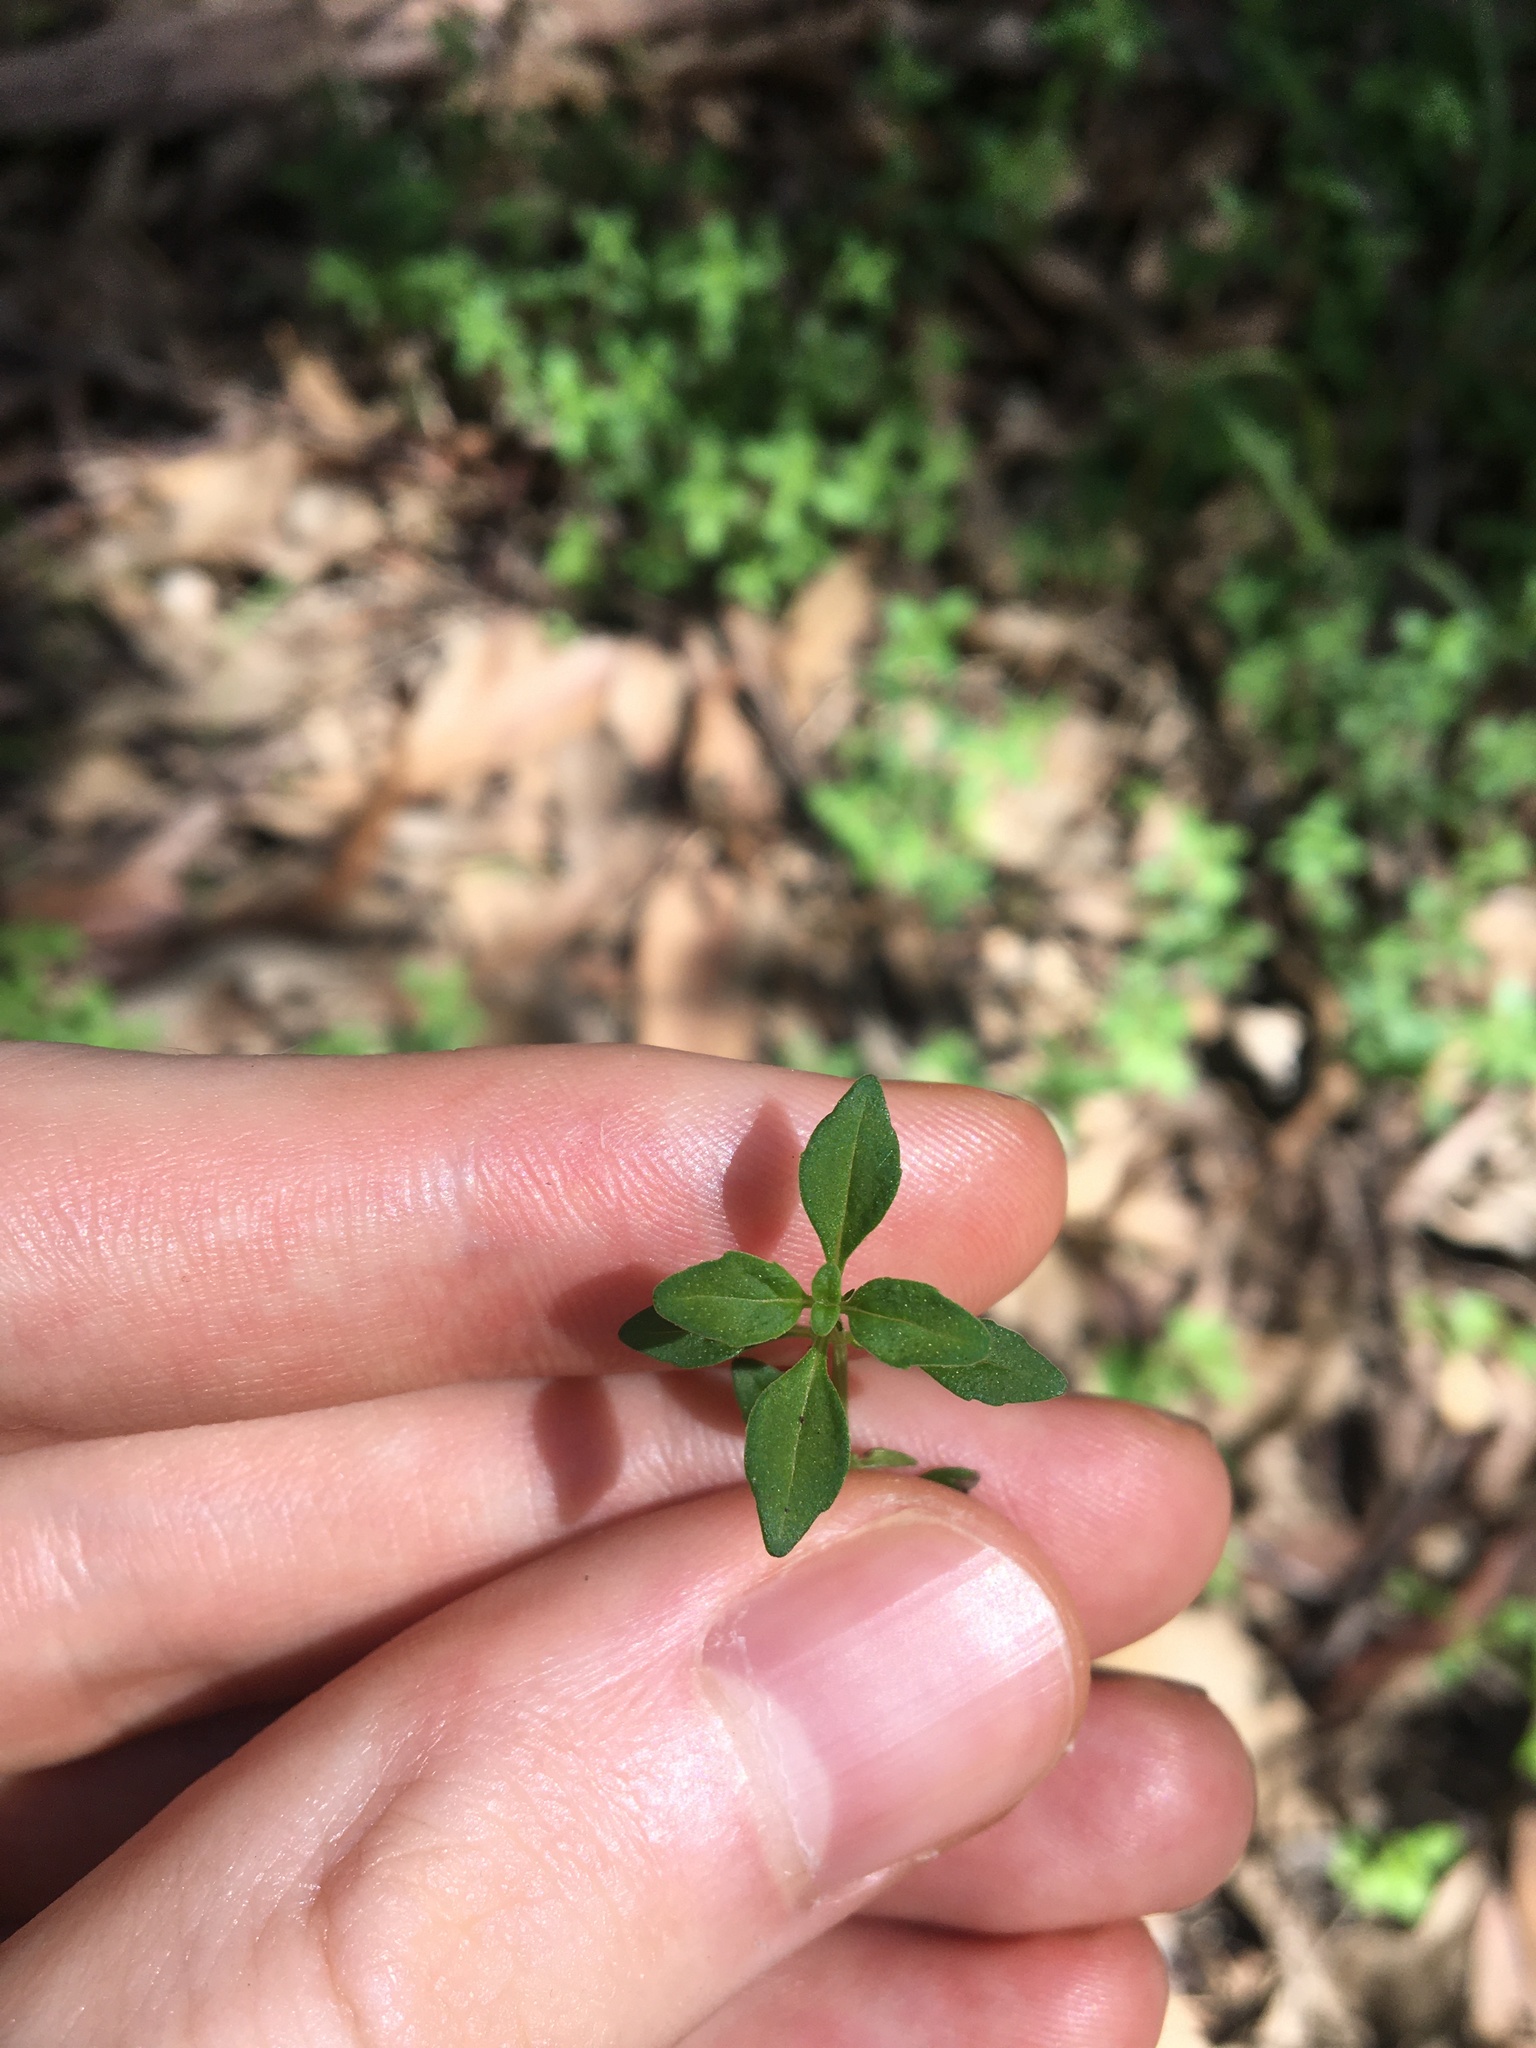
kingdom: Plantae
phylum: Tracheophyta
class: Magnoliopsida
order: Lamiales
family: Lamiaceae
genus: Mentha
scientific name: Mentha diemenica
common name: Wild mint
